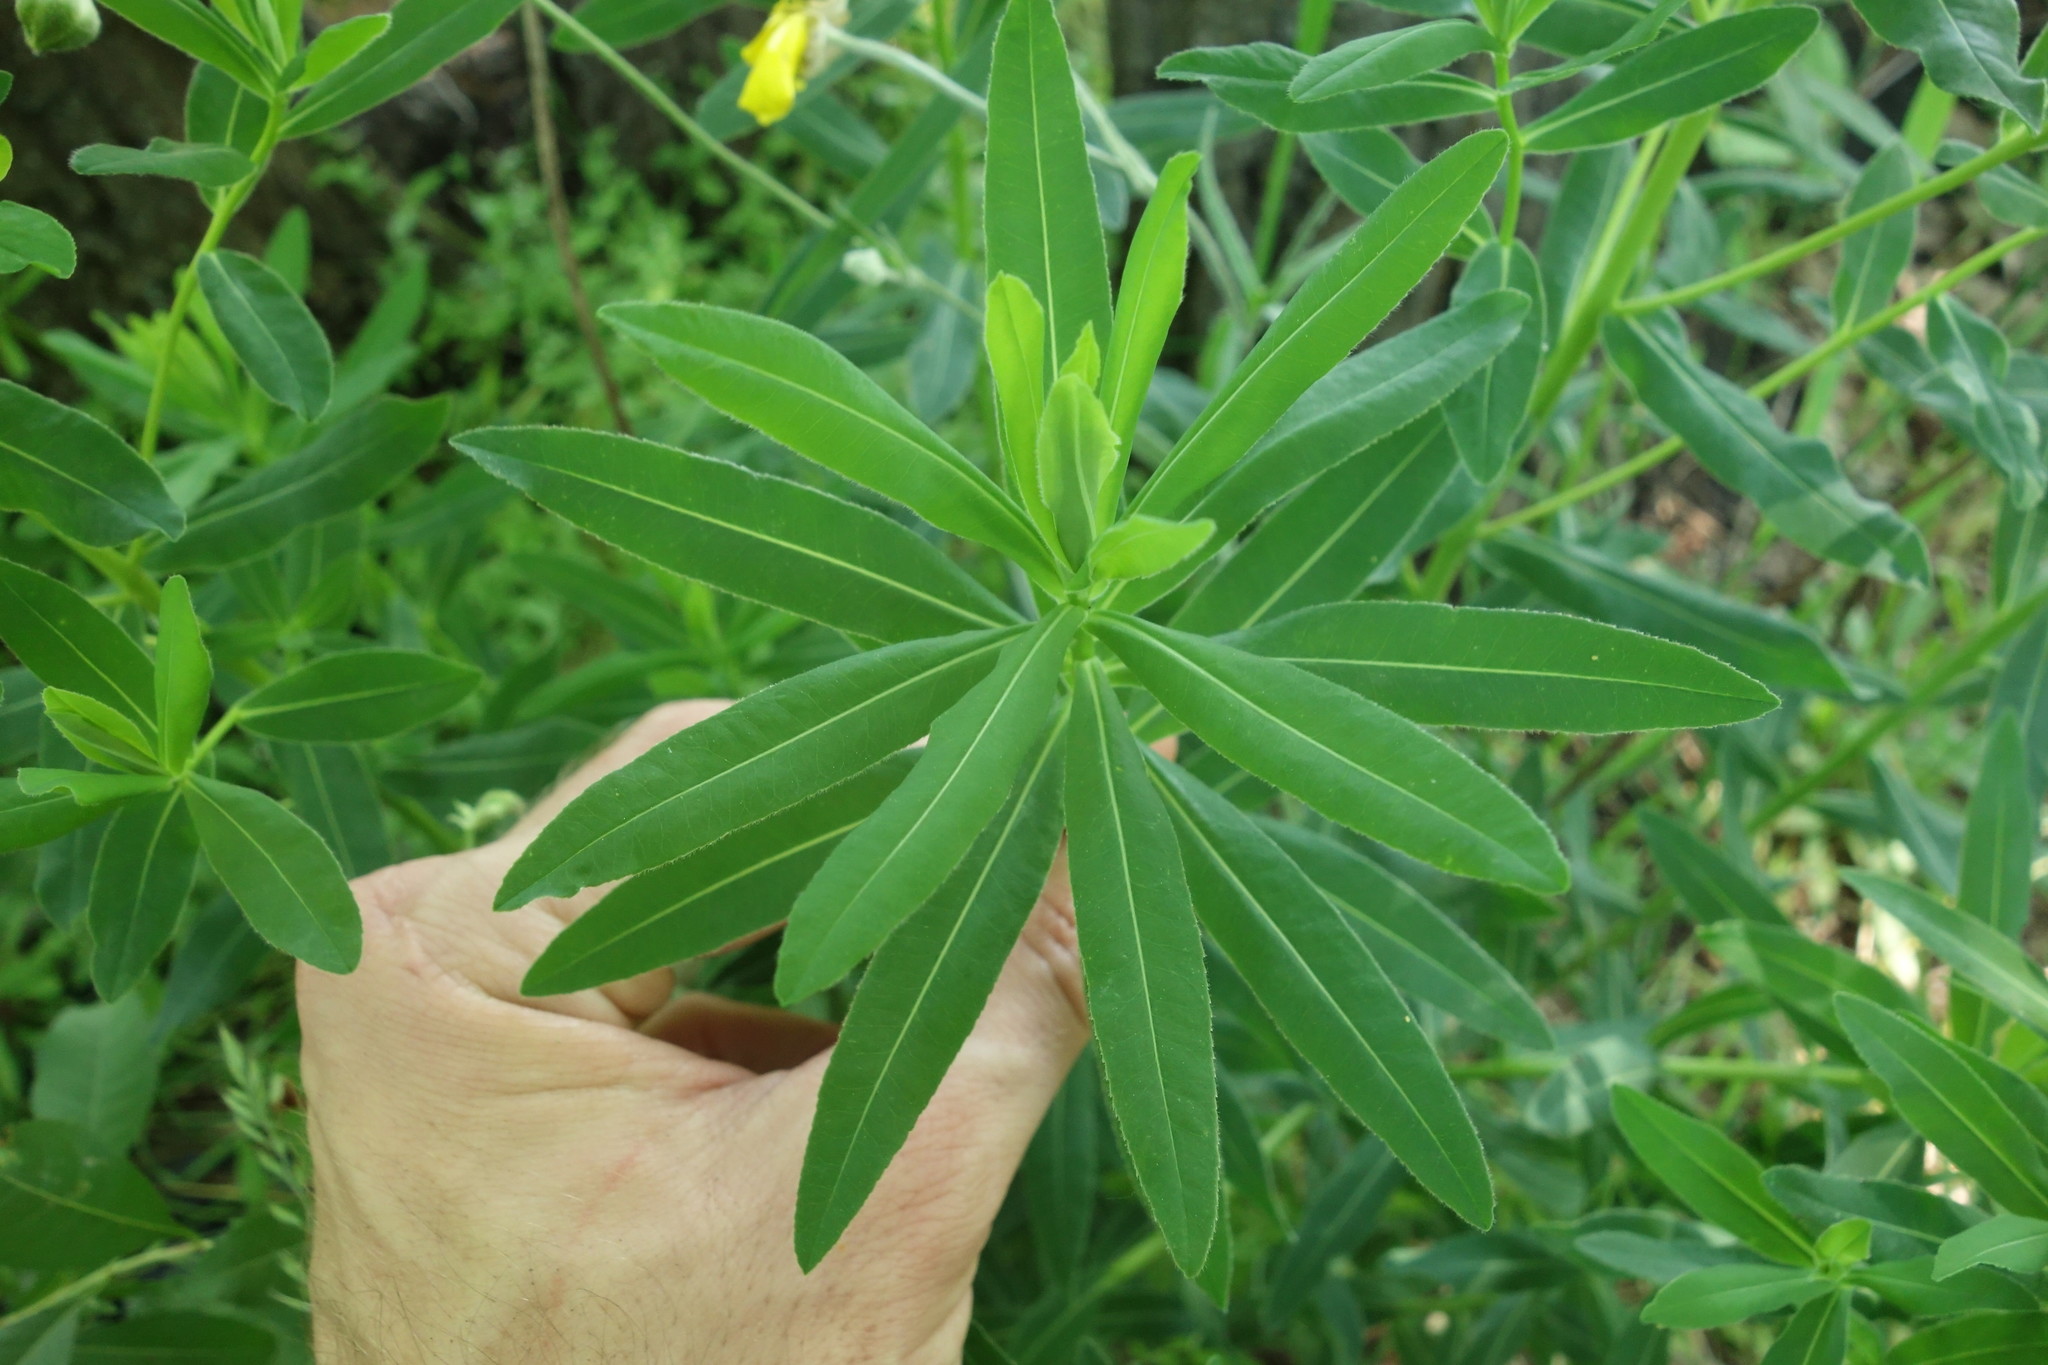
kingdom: Plantae
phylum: Tracheophyta
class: Magnoliopsida
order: Malpighiales
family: Euphorbiaceae
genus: Euphorbia
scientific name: Euphorbia semivillosa
